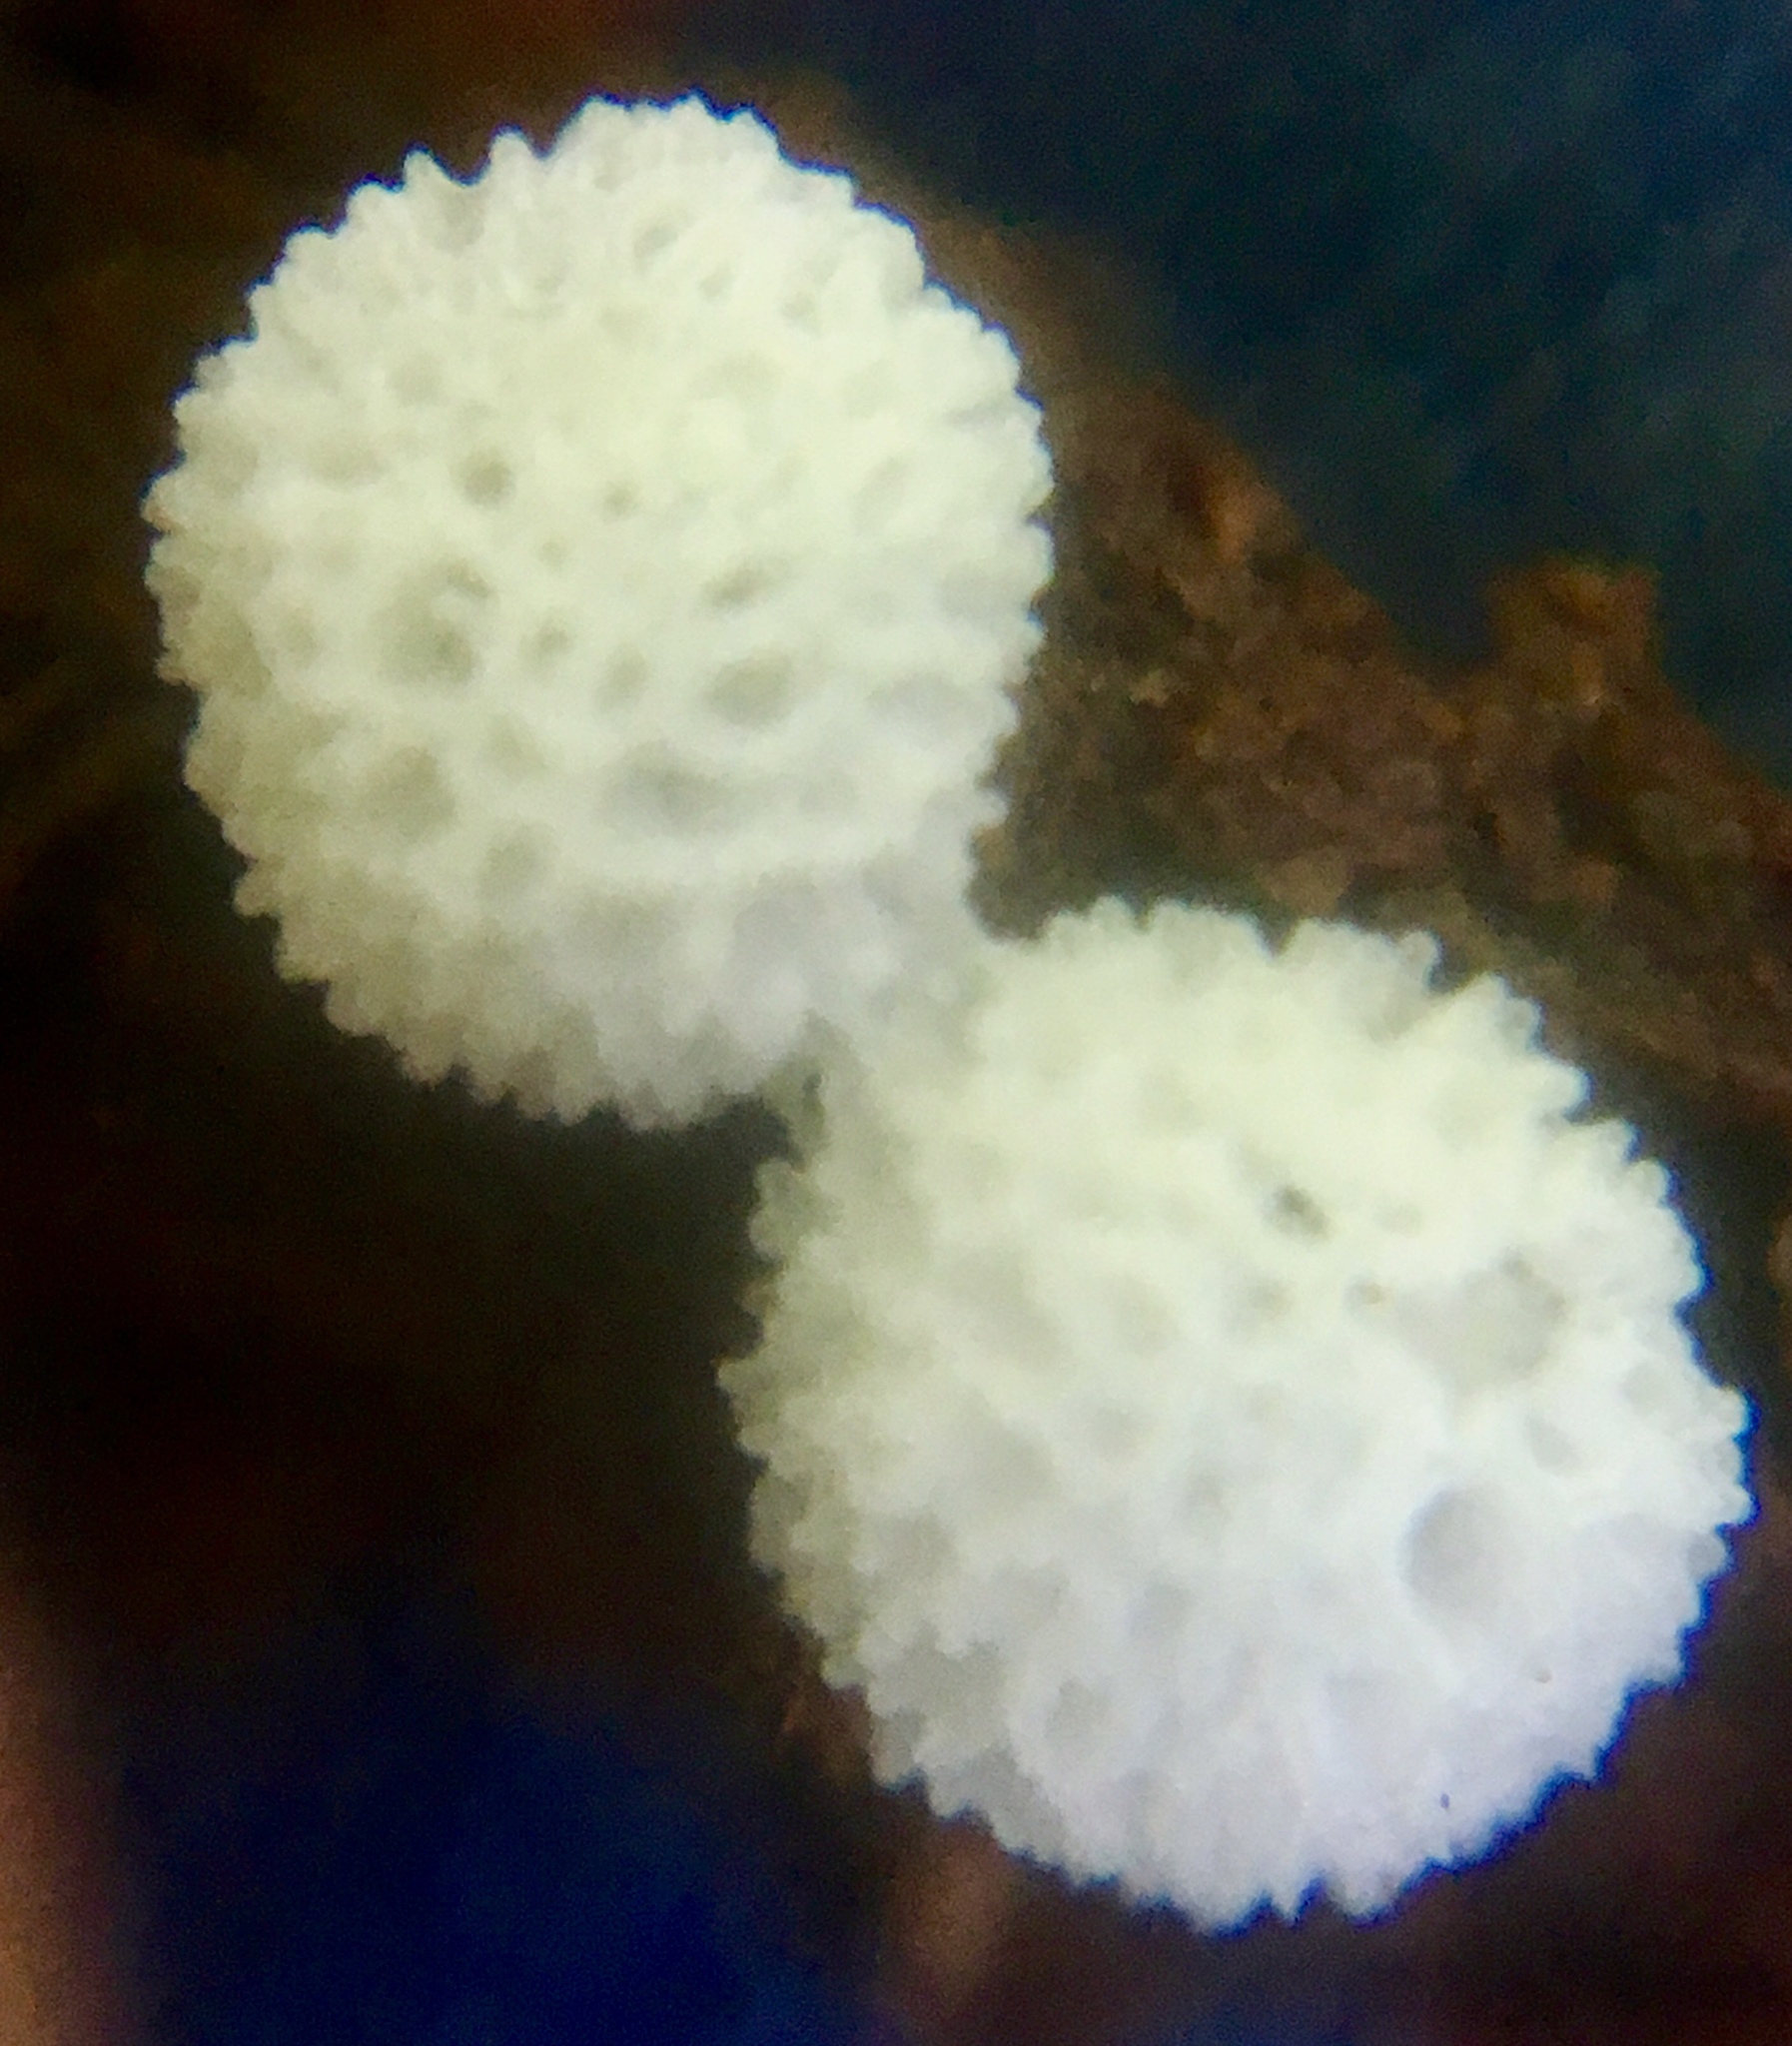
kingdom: Protozoa
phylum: Mycetozoa
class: Protosteliomycetes
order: Ceratiomyxales
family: Ceratiomyxaceae
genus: Ceratiomyxa
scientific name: Ceratiomyxa fruticulosa
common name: Honeycomb coral slime mold
